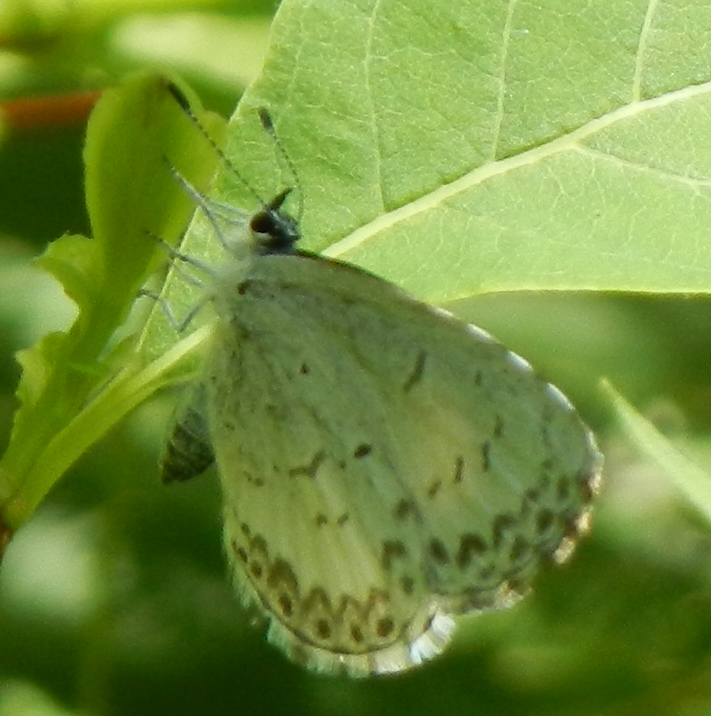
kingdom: Animalia
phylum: Arthropoda
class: Insecta
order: Lepidoptera
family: Lycaenidae
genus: Celastrina
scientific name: Celastrina lucia
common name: Lucia azure
